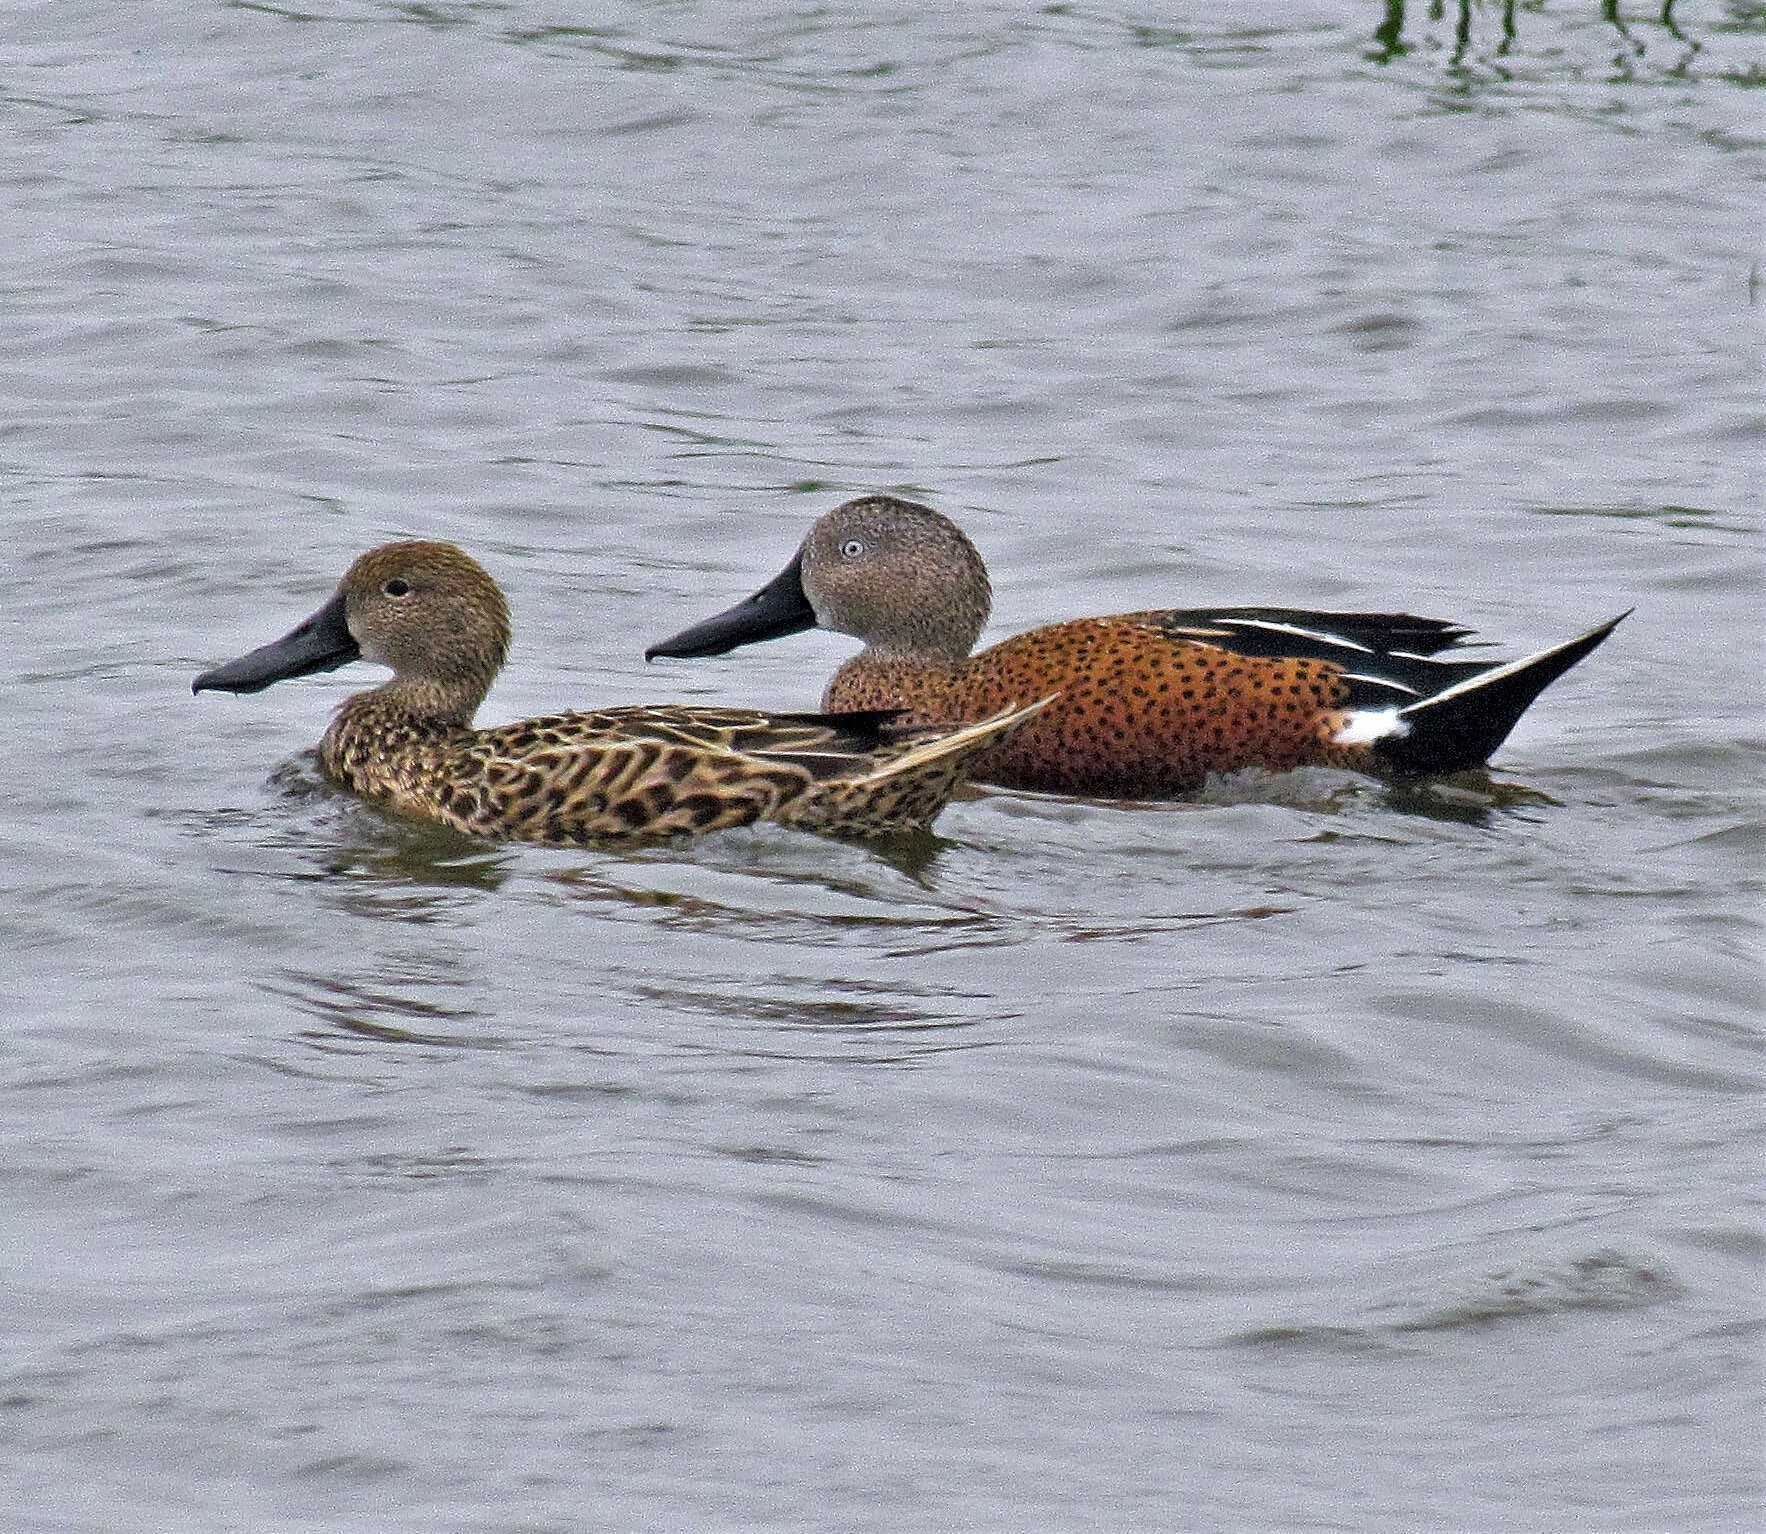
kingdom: Animalia
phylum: Chordata
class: Aves
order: Anseriformes
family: Anatidae
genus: Spatula
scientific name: Spatula platalea
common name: Red shoveler
